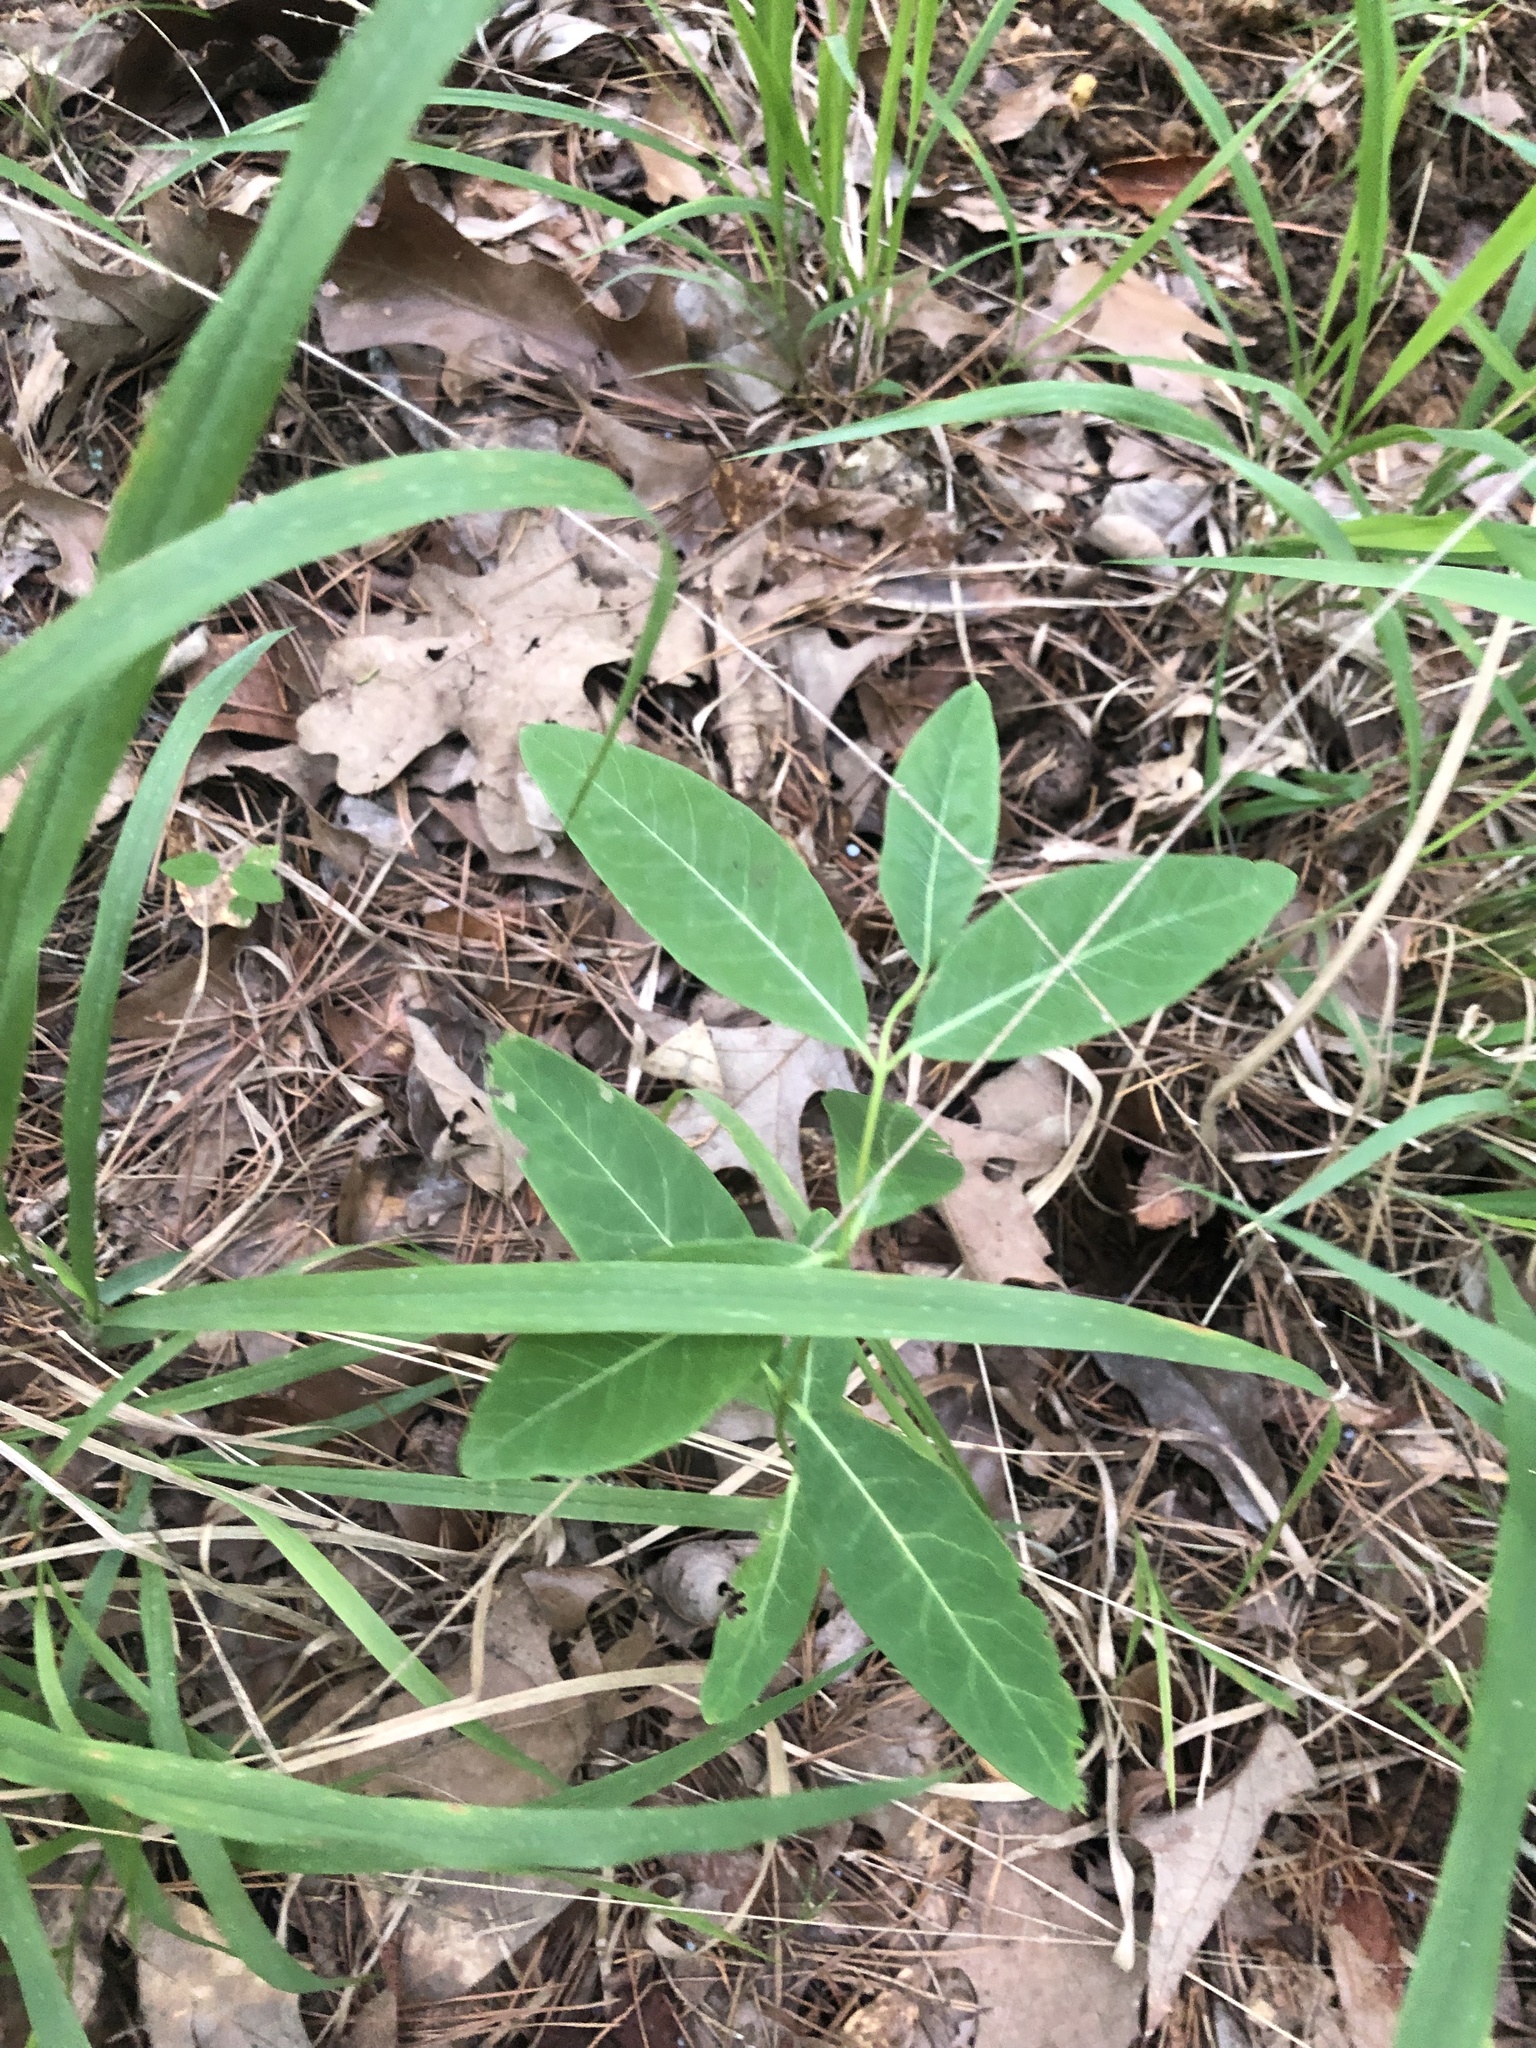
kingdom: Plantae
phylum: Tracheophyta
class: Magnoliopsida
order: Gentianales
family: Apocynaceae
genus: Apocynum
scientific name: Apocynum cannabinum
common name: Hemp dogbane
